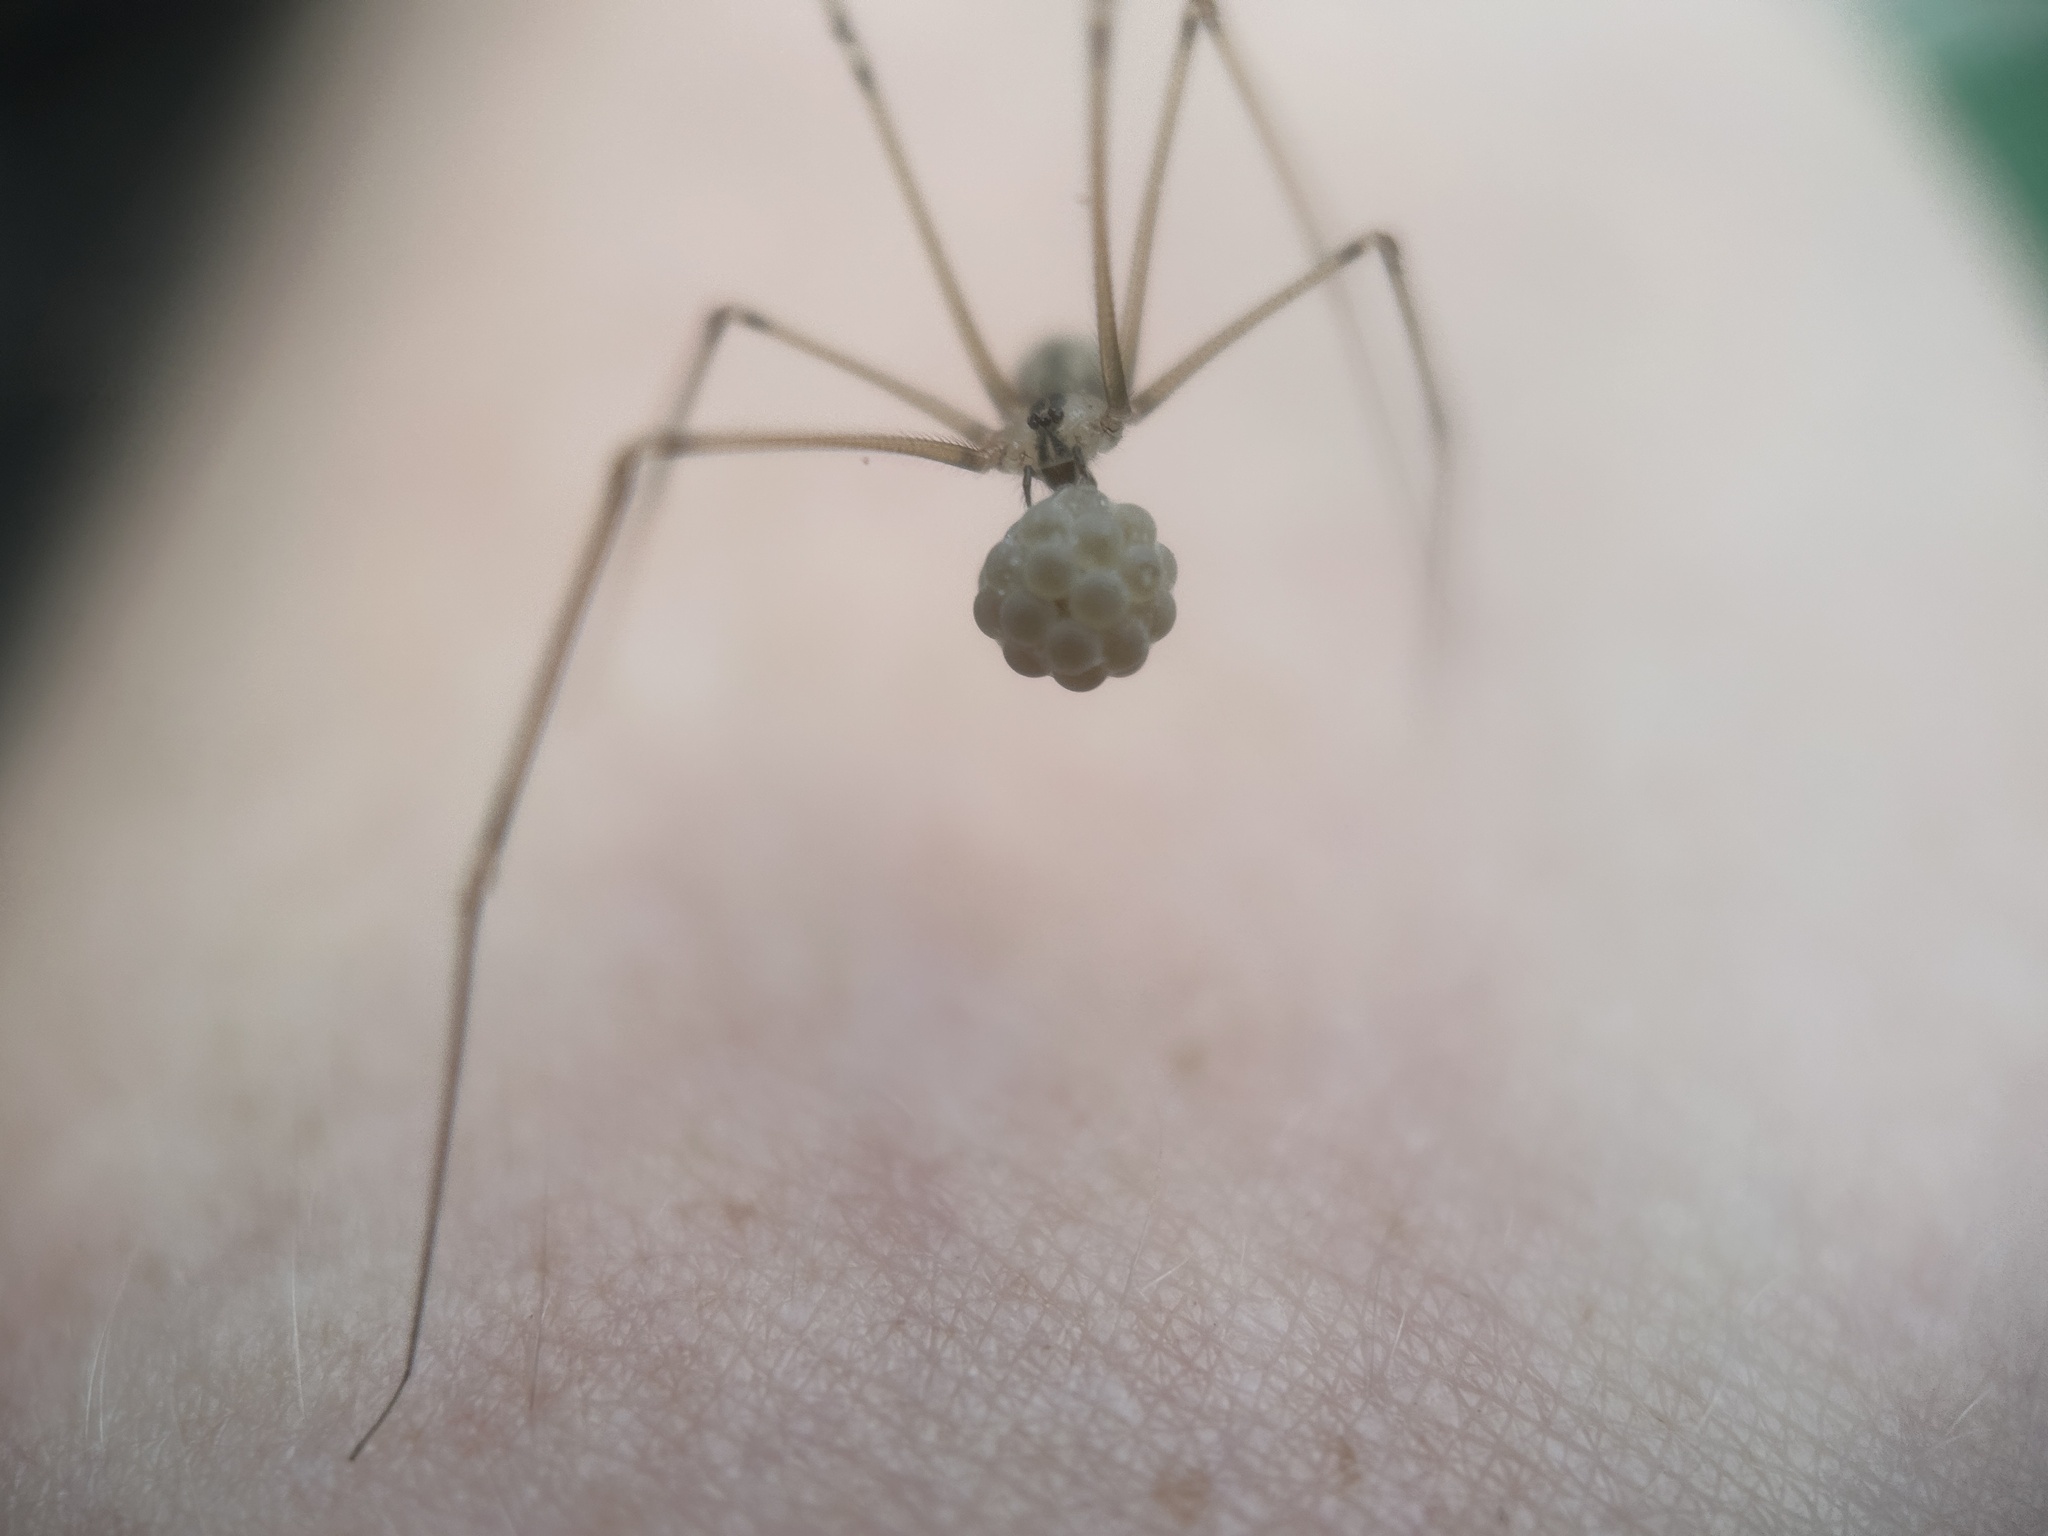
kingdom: Animalia
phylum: Arthropoda
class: Arachnida
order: Araneae
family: Pholcidae
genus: Pholcus
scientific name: Pholcus manueli
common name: Cellar spider
